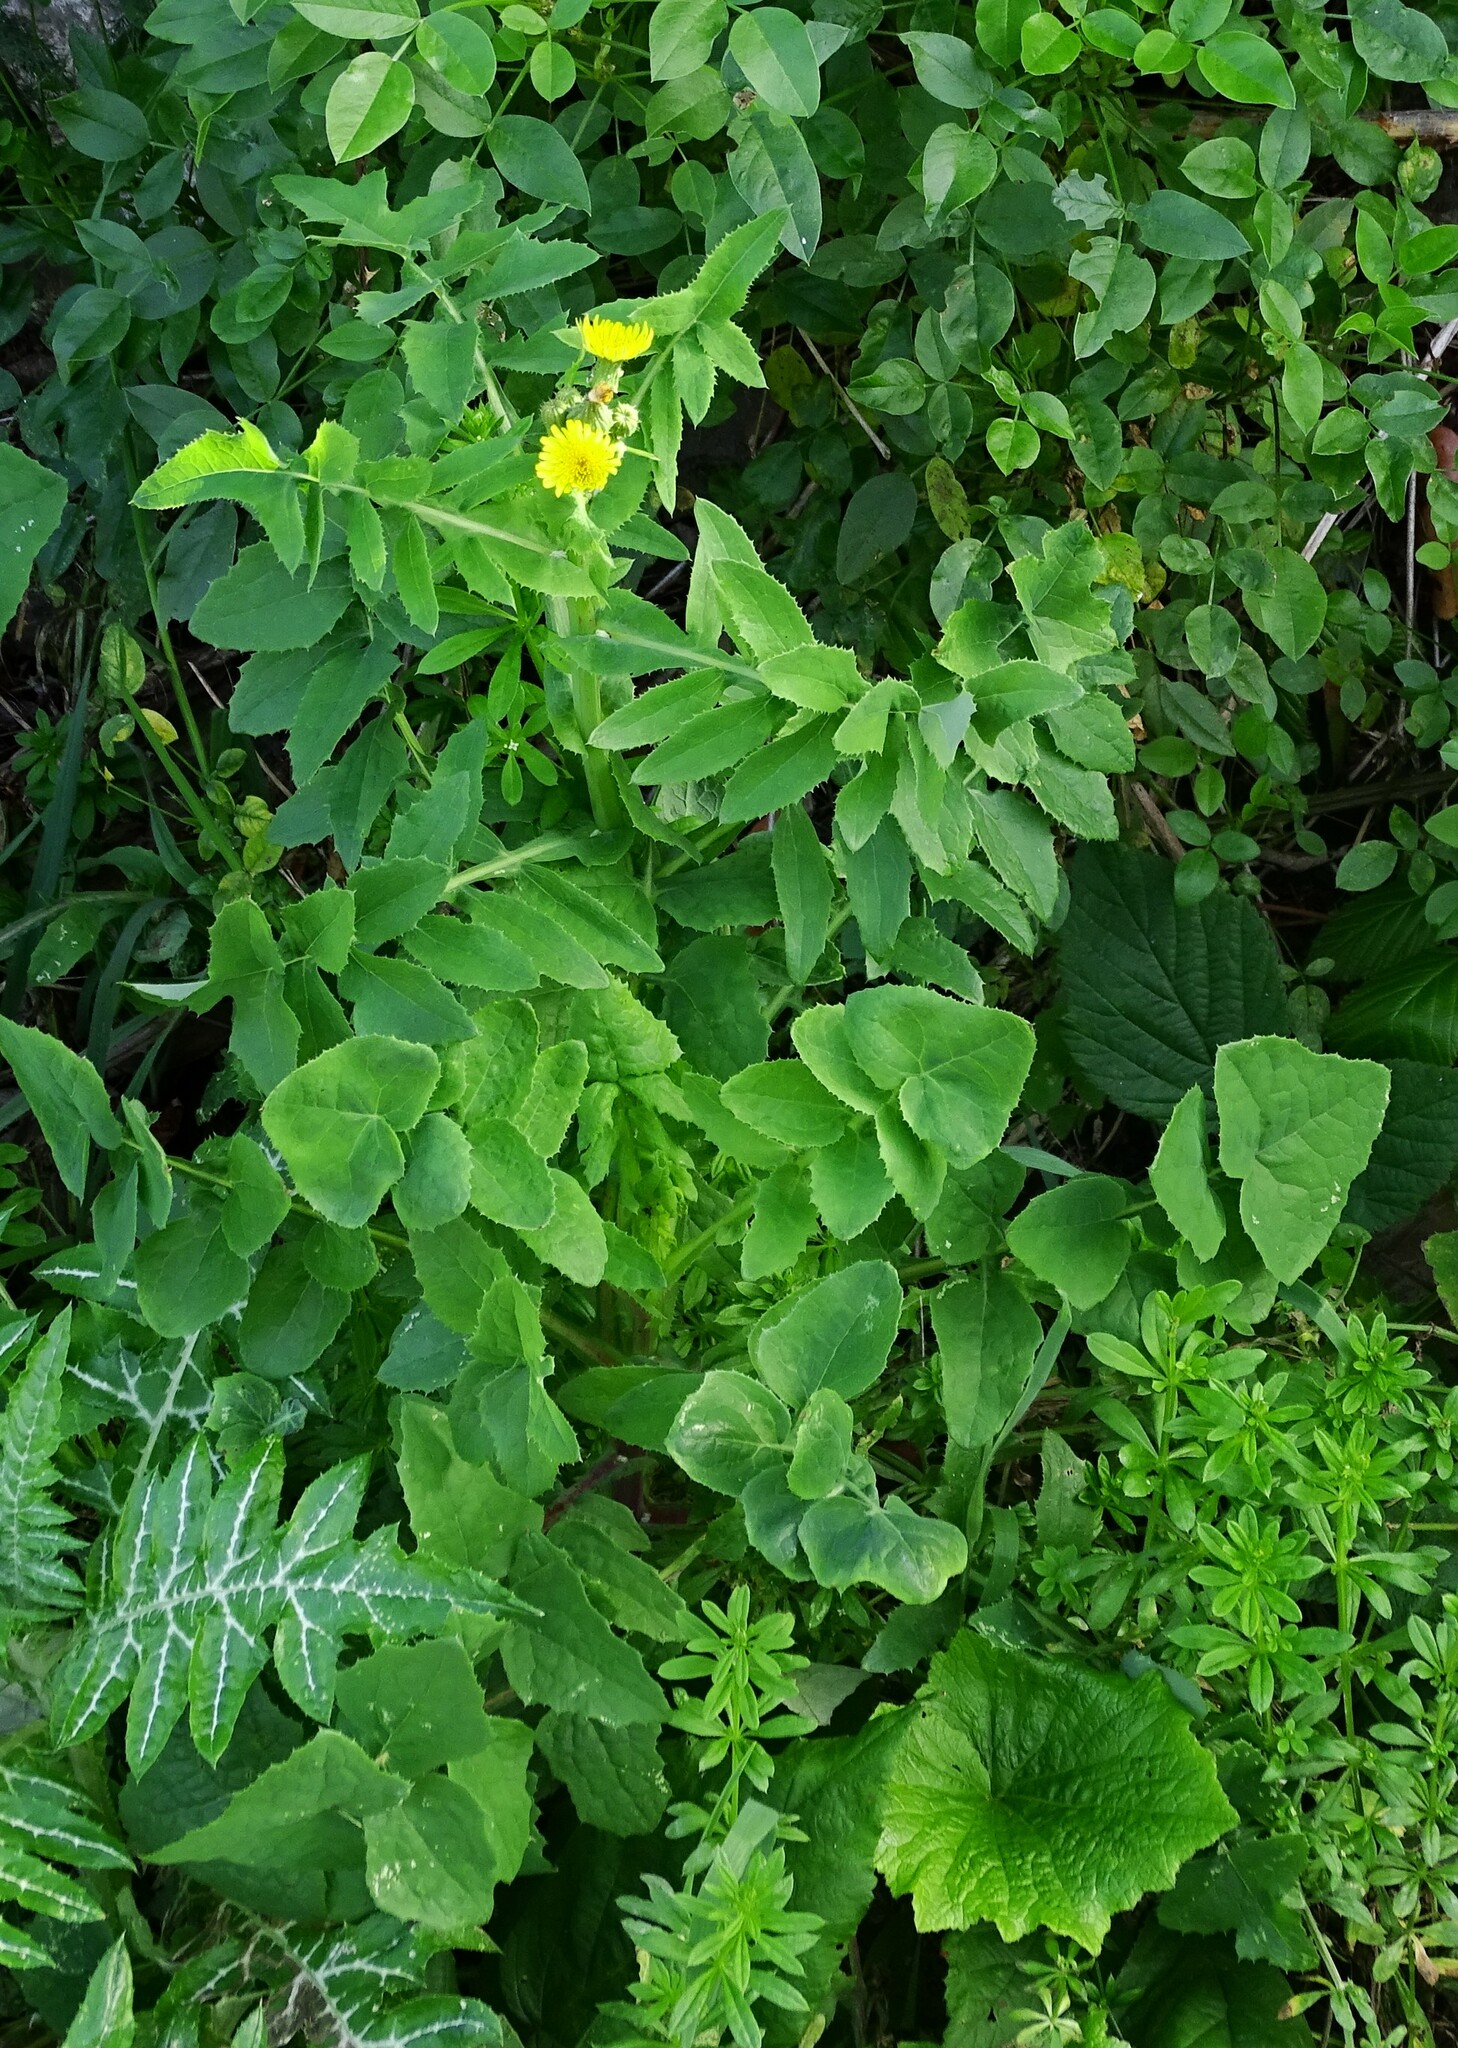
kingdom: Plantae
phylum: Tracheophyta
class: Magnoliopsida
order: Asterales
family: Asteraceae
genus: Sonchus
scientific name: Sonchus oleraceus
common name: Common sowthistle
